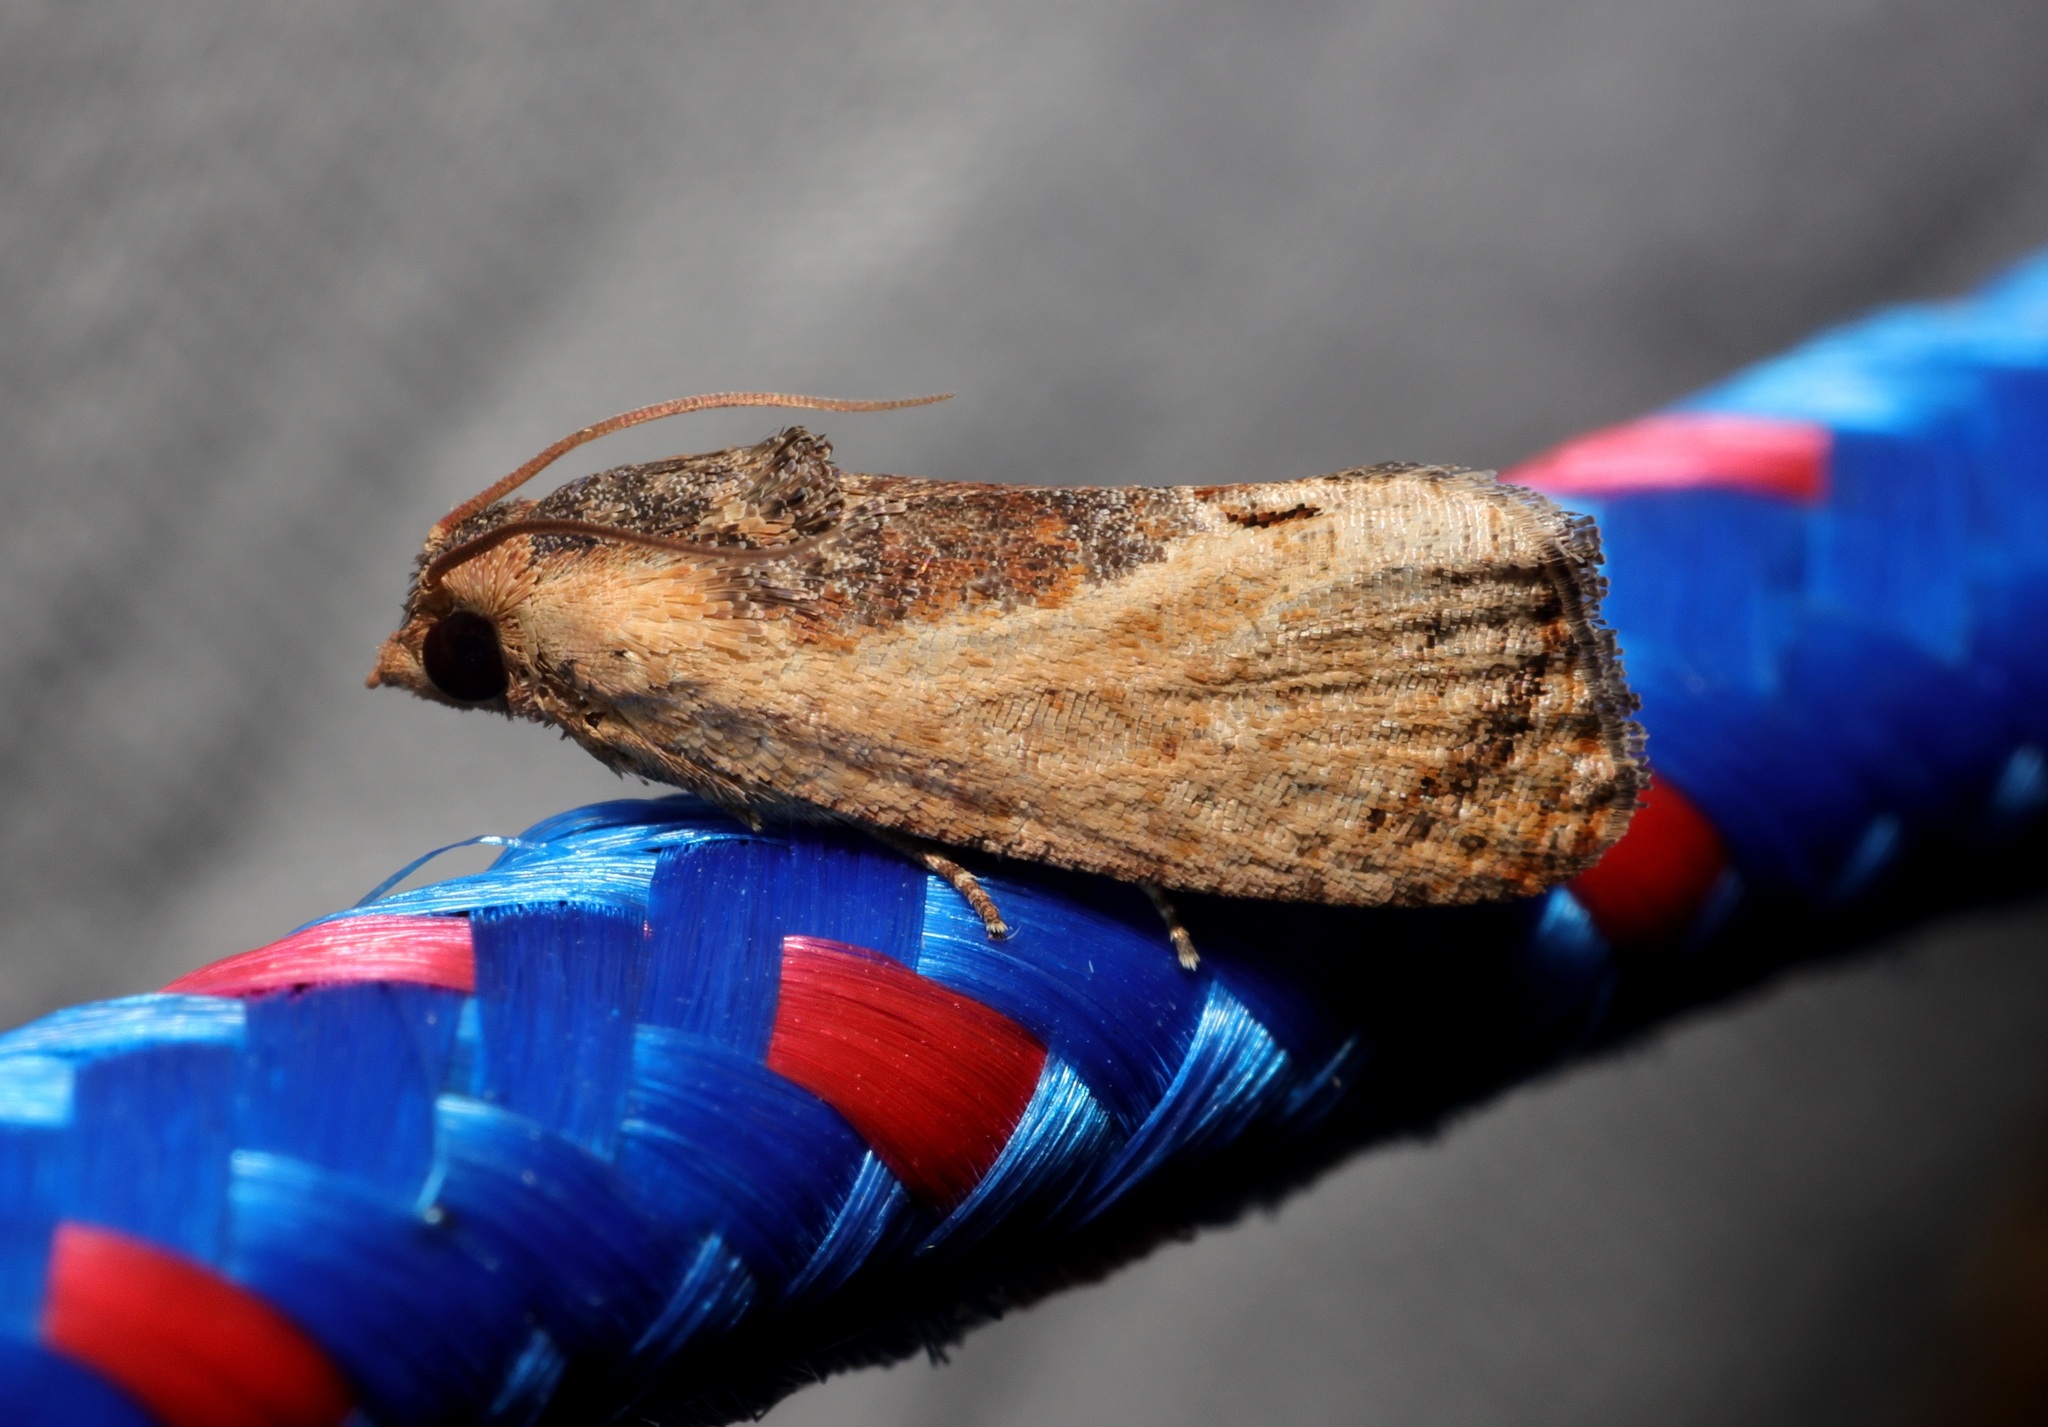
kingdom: Animalia
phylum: Arthropoda
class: Insecta
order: Lepidoptera
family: Tortricidae
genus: Cryptophlebia
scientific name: Cryptophlebia ombrodelta
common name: Litchi fruit moth
